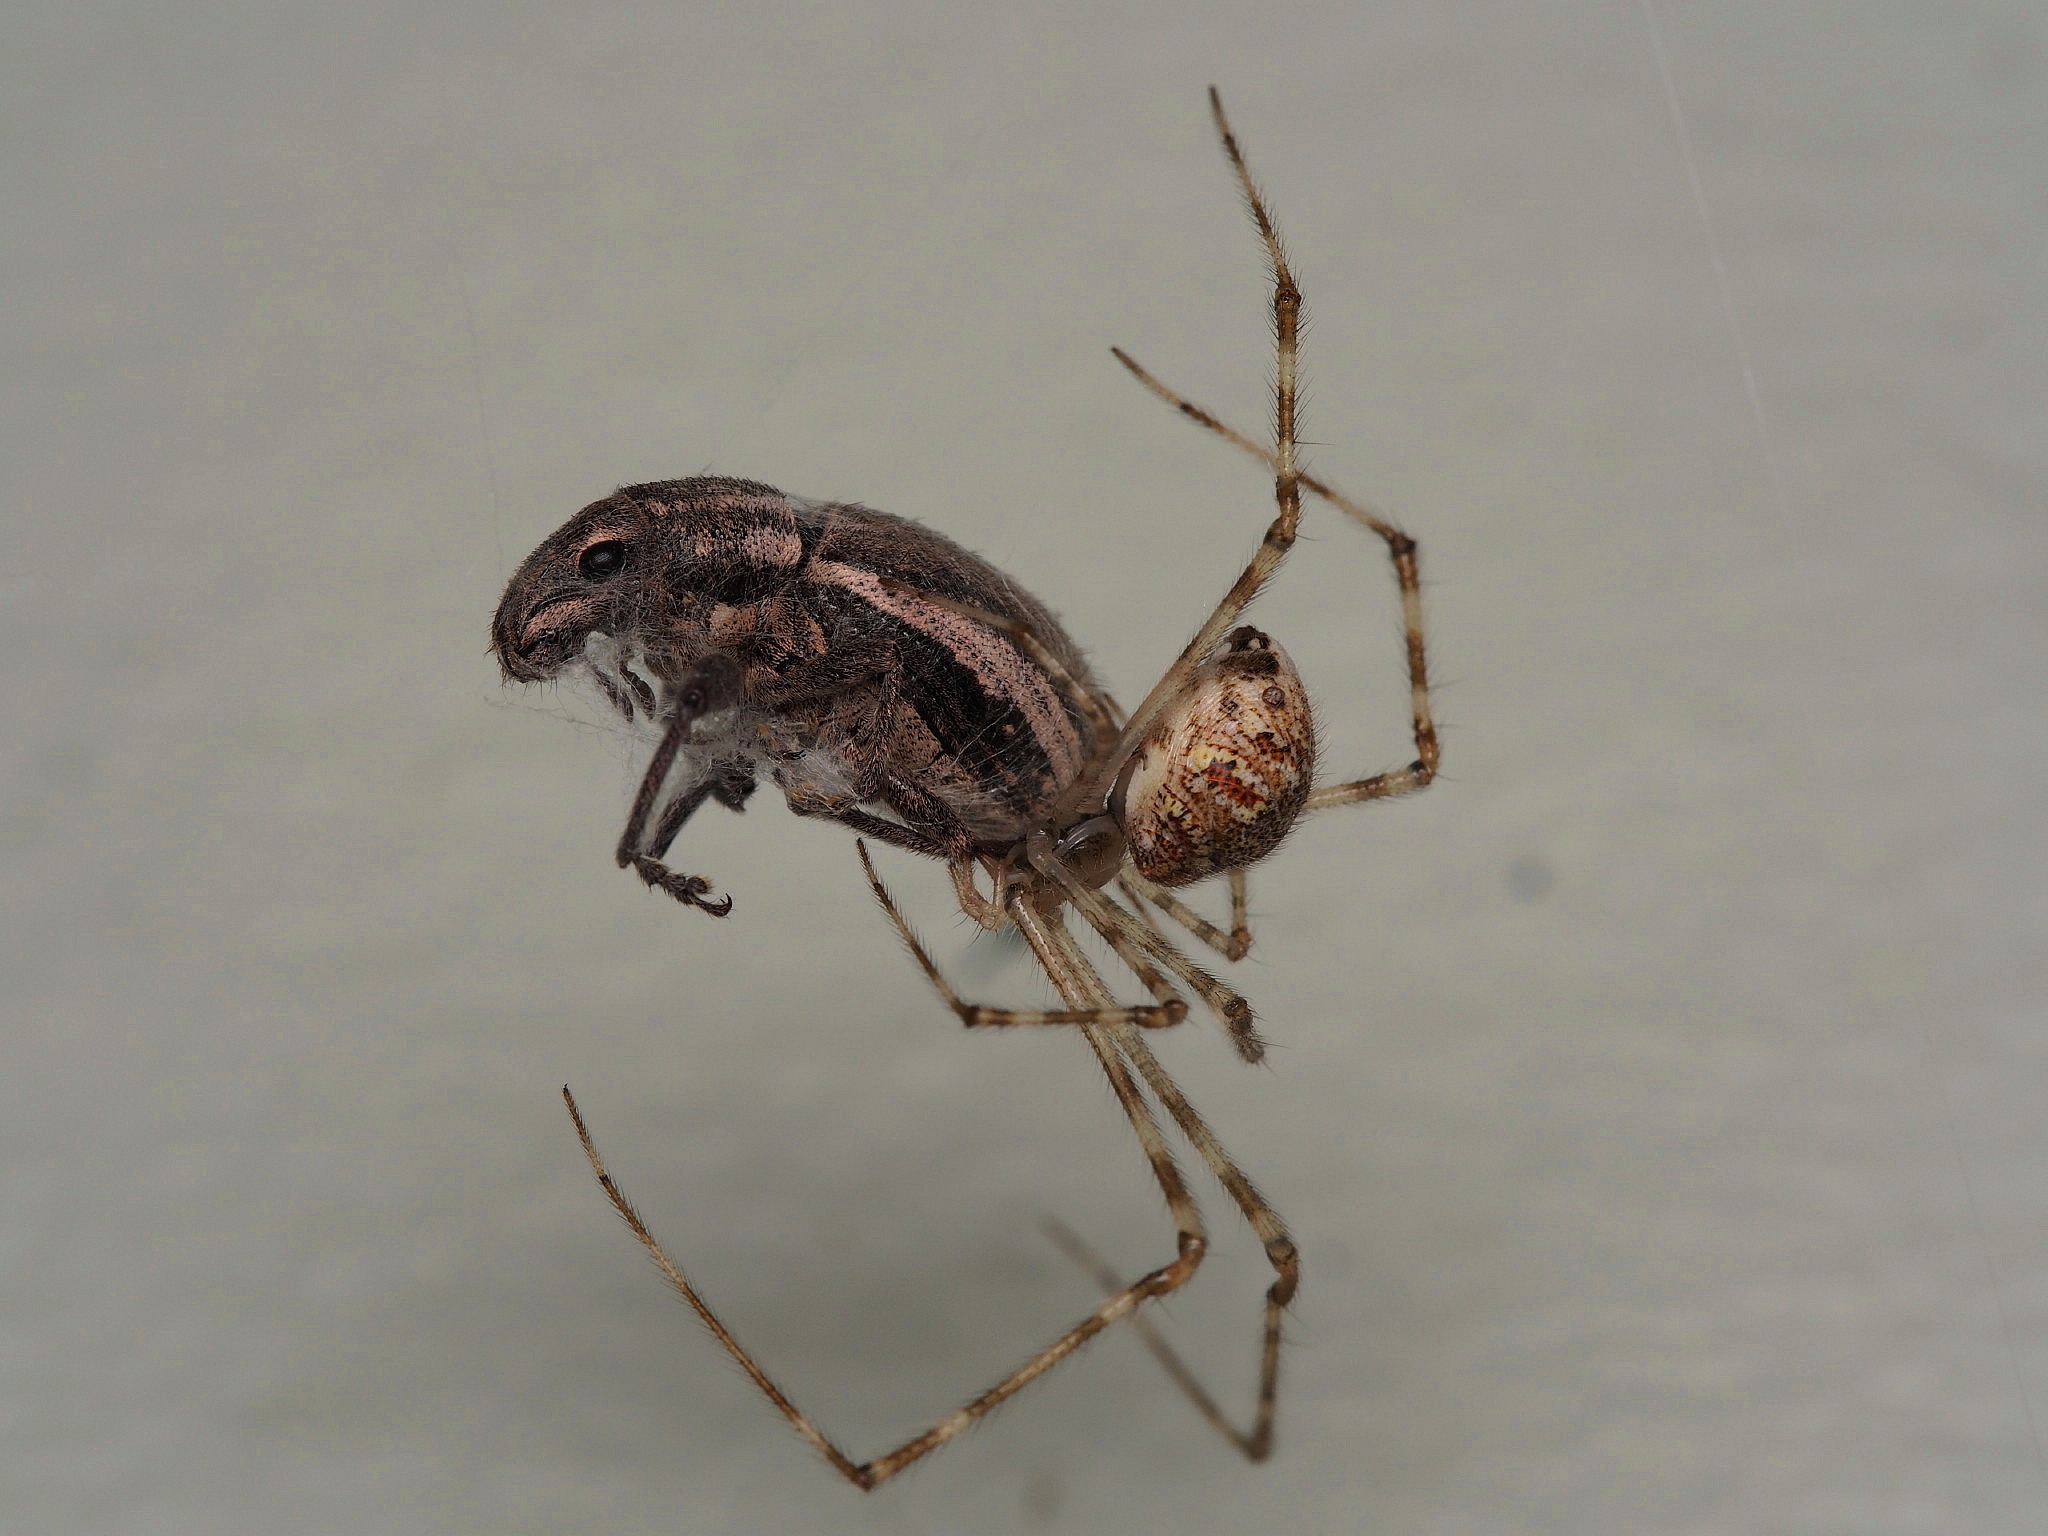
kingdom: Animalia
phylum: Arthropoda
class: Insecta
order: Coleoptera
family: Curculionidae
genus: Naupactus
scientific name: Naupactus leucoloma
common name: Whitefringed beetle
